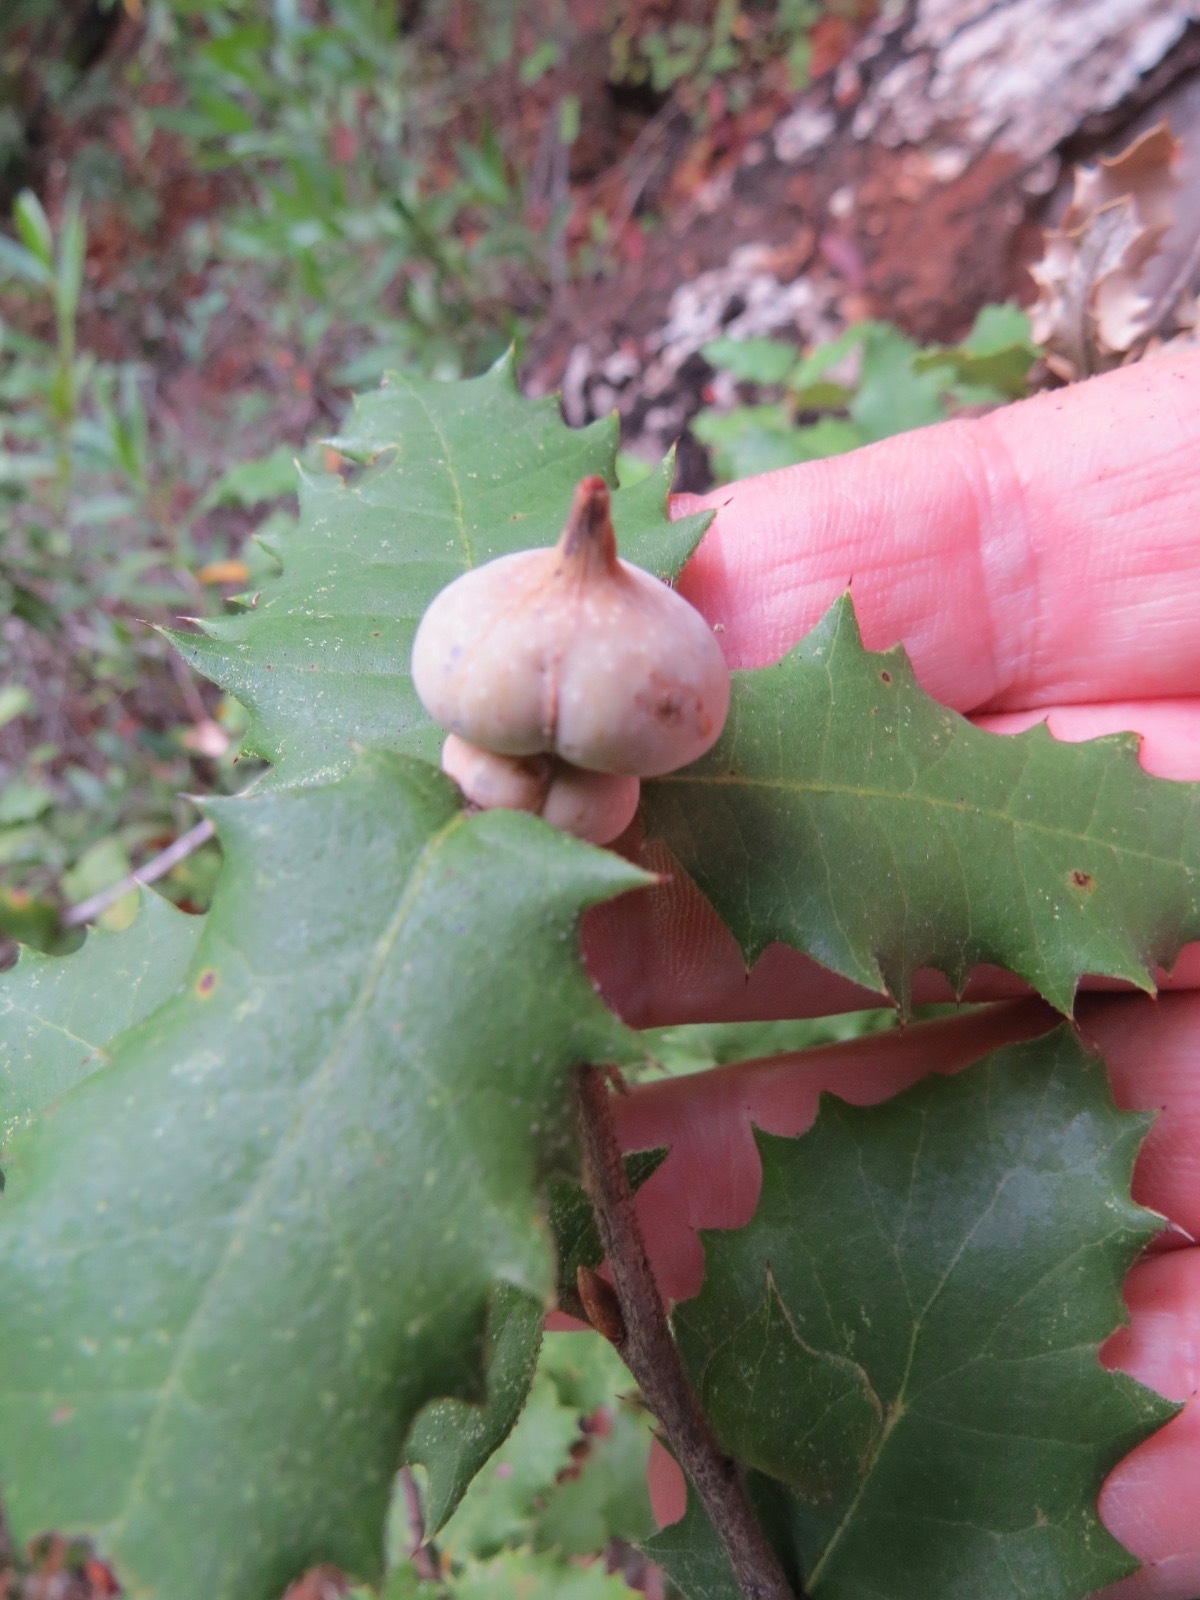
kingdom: Animalia
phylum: Arthropoda
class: Insecta
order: Hymenoptera
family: Cynipidae
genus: Heteroecus
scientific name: Heteroecus
